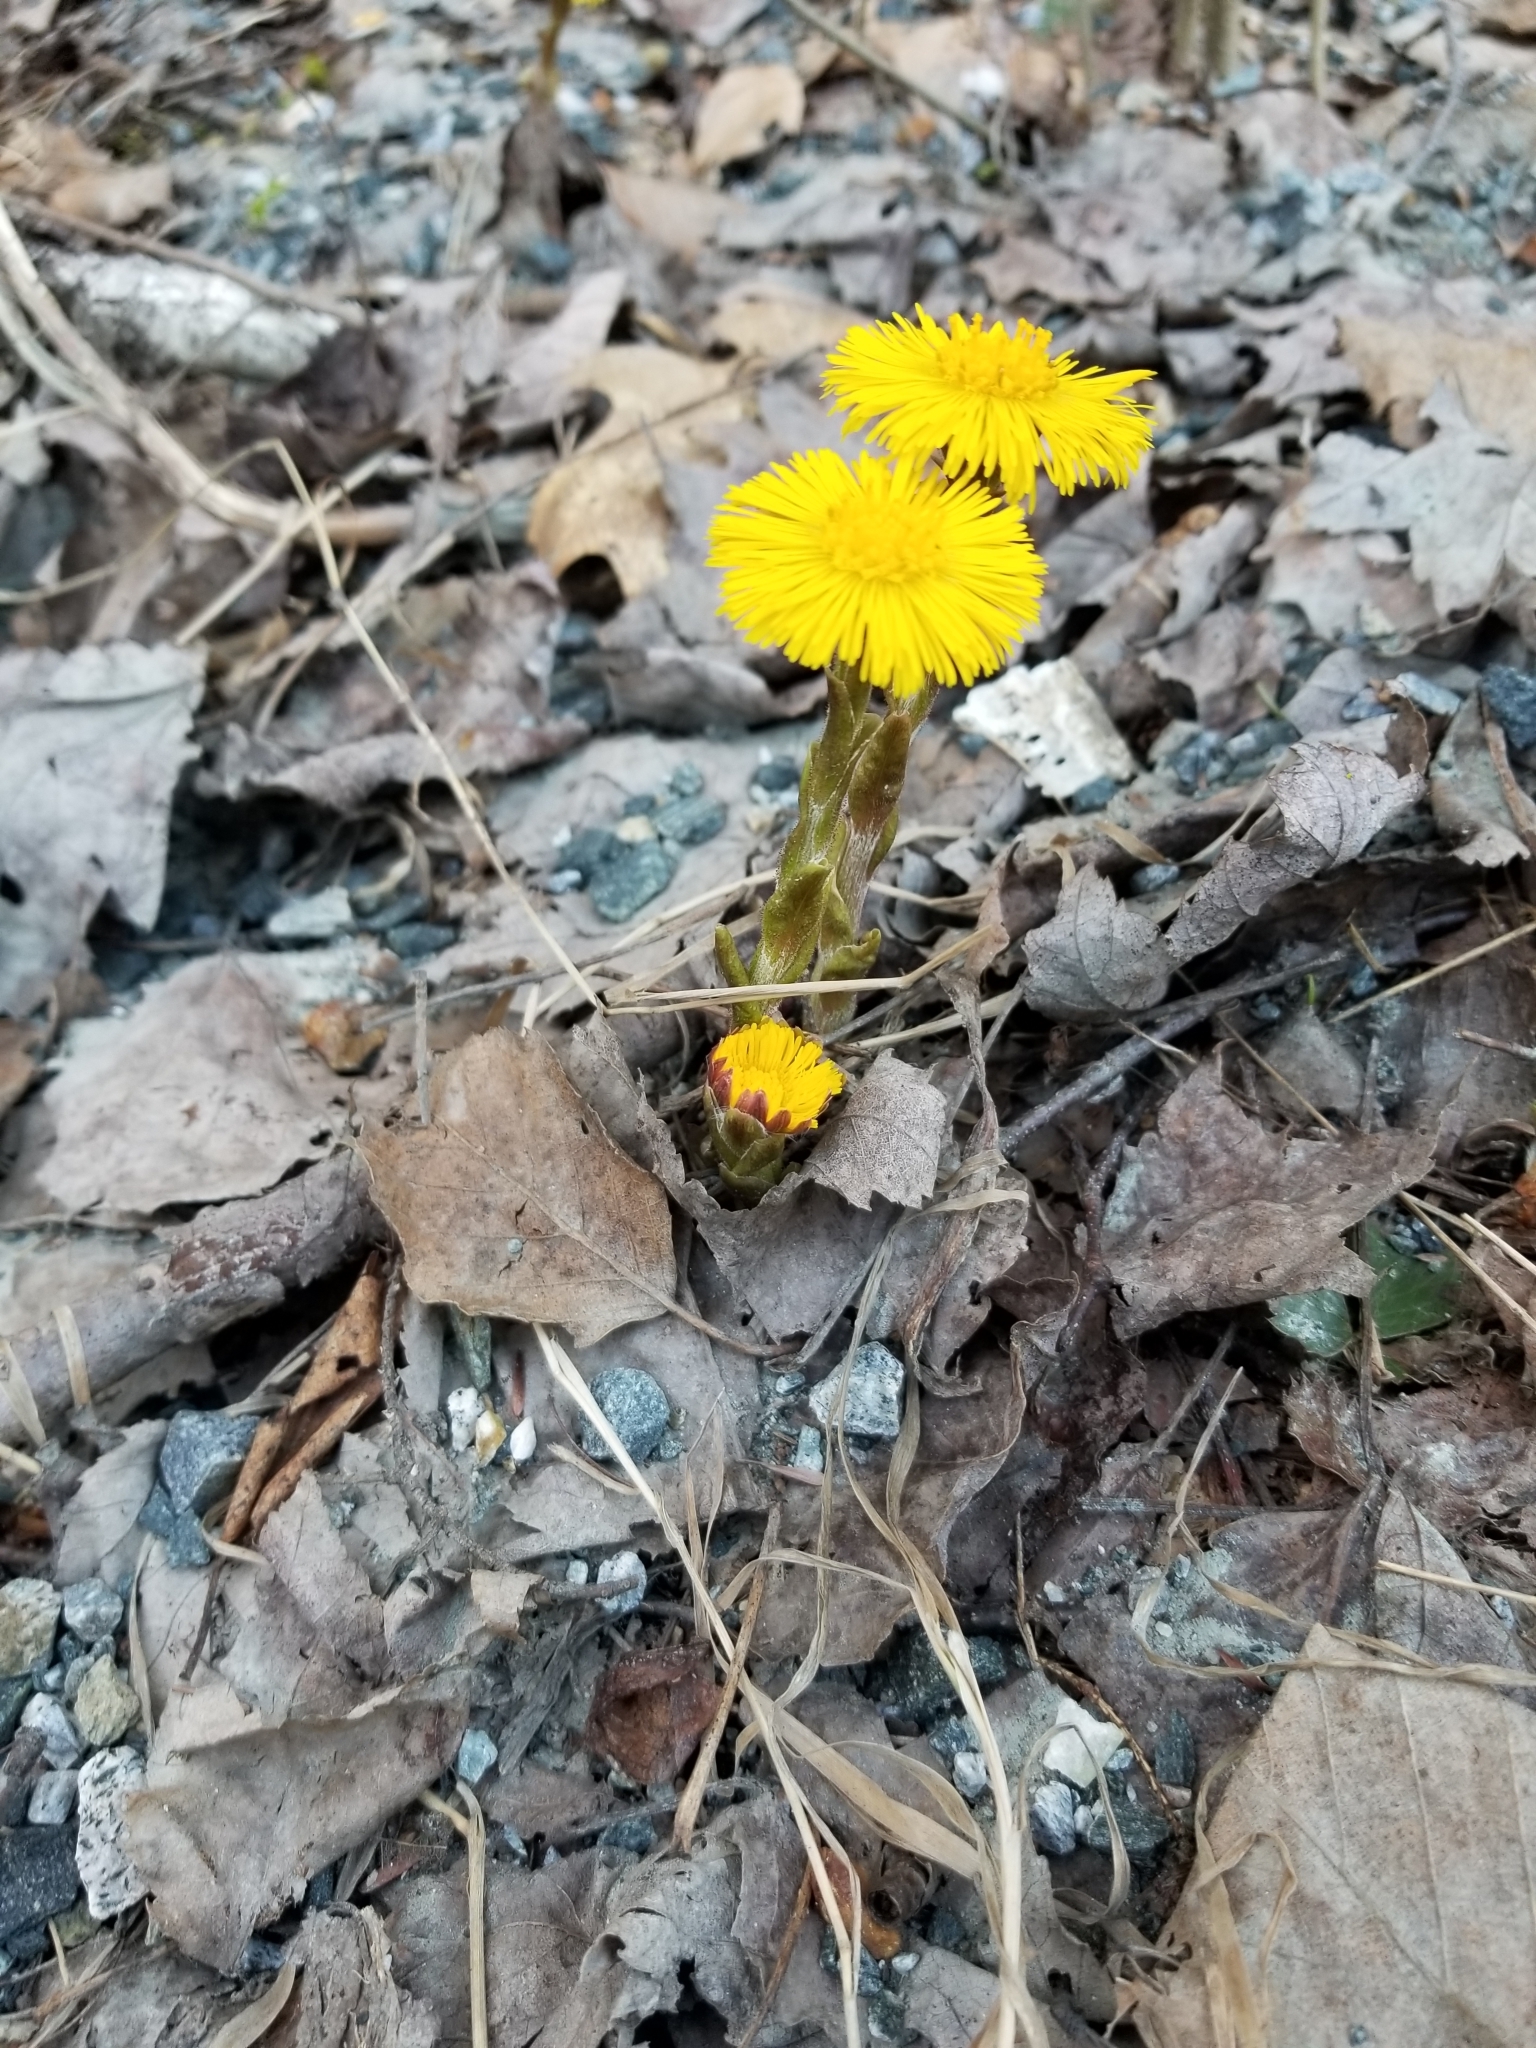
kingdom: Plantae
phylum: Tracheophyta
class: Magnoliopsida
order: Asterales
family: Asteraceae
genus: Tussilago
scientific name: Tussilago farfara
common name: Coltsfoot
